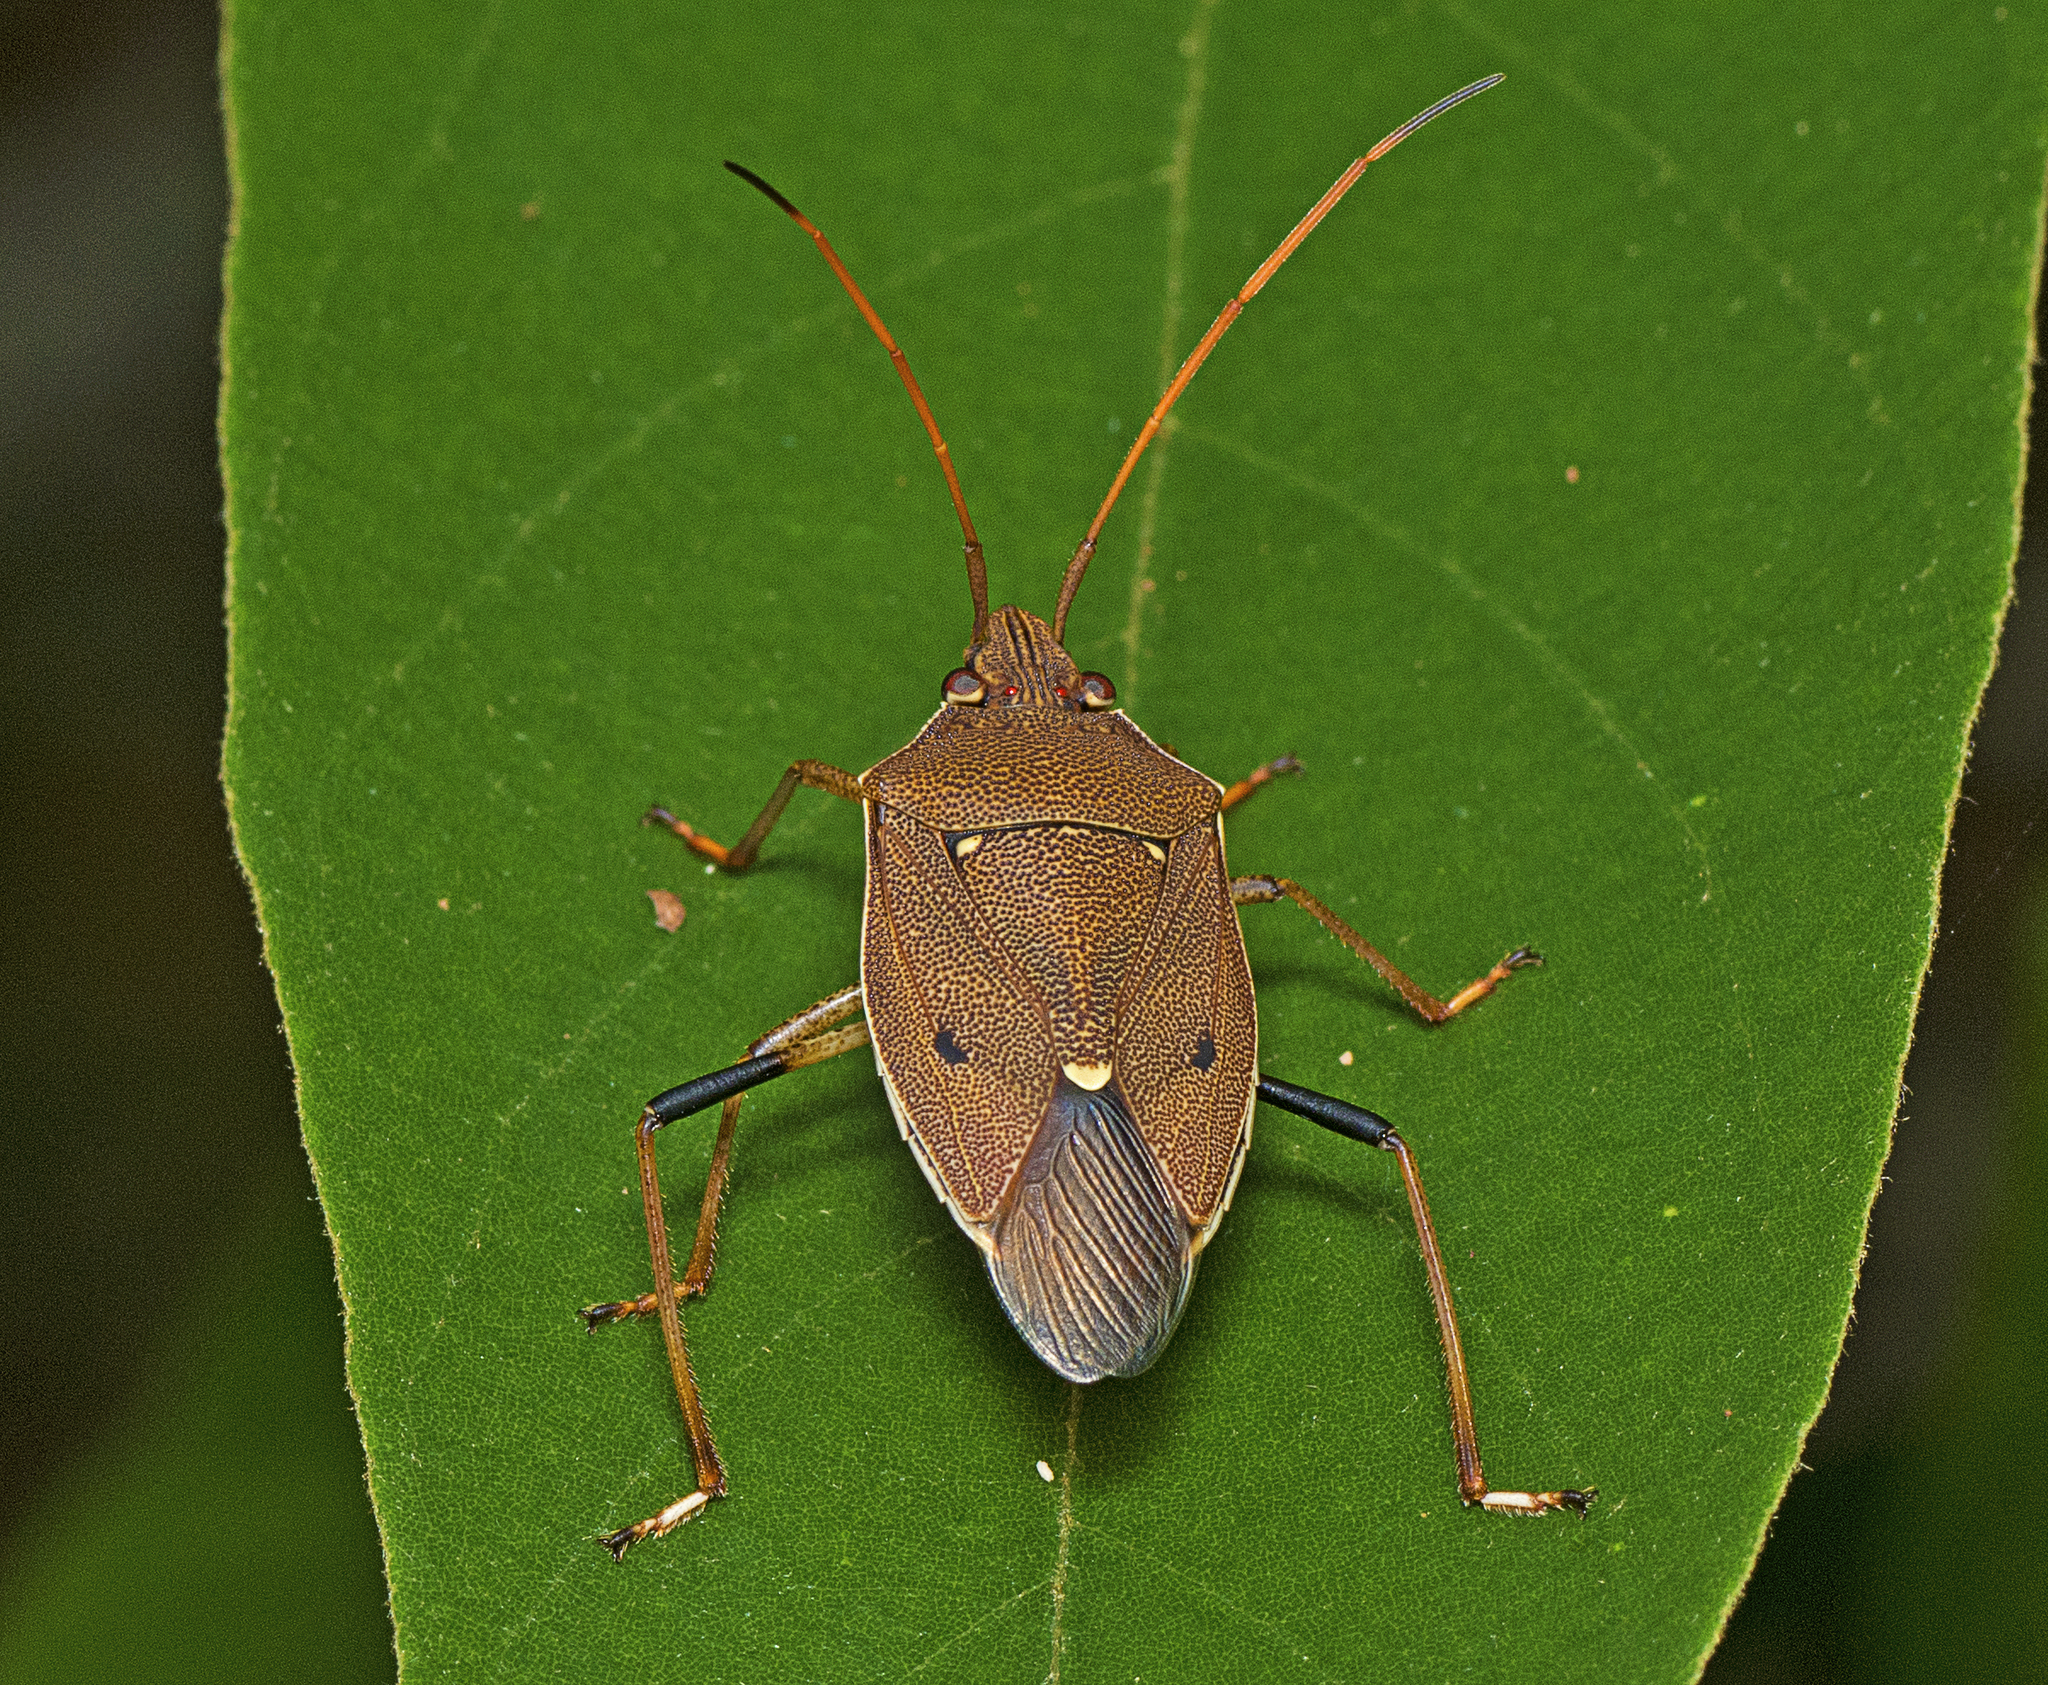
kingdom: Animalia
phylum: Arthropoda
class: Insecta
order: Hemiptera
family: Pentatomidae
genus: Poecilometis
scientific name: Poecilometis
